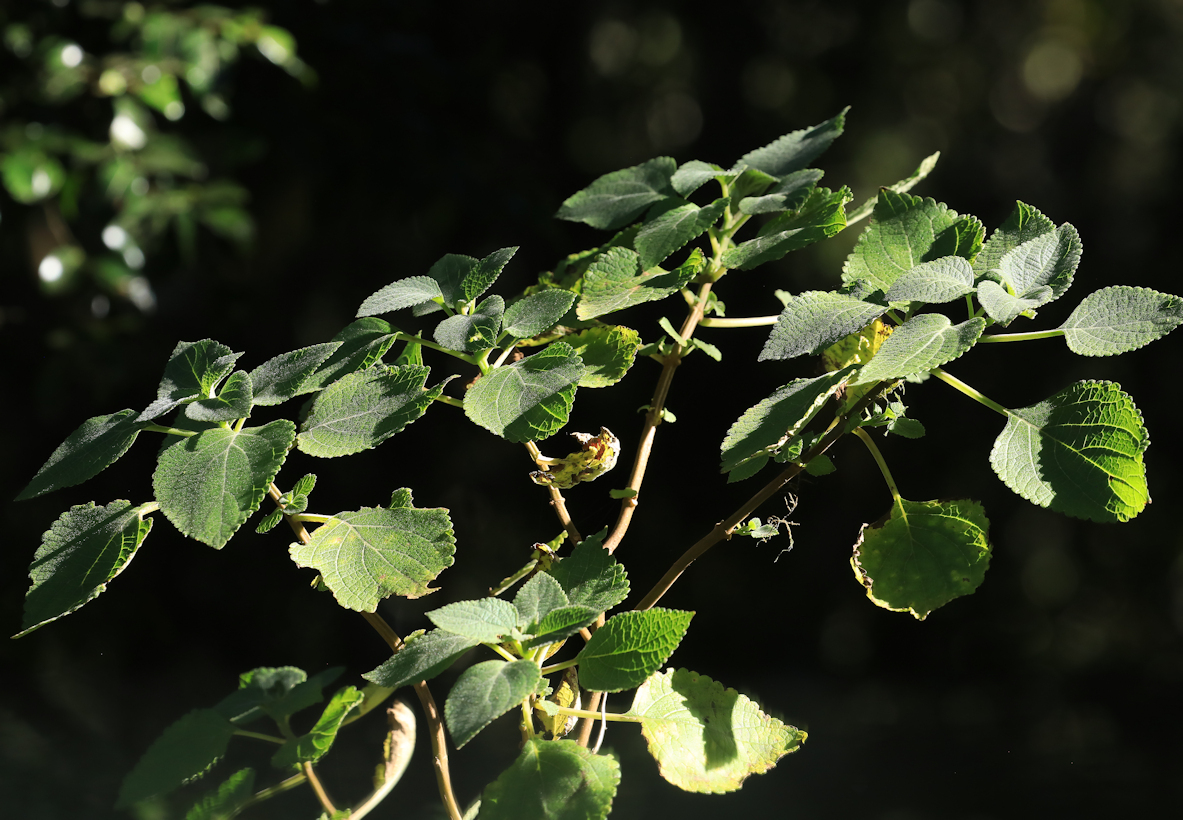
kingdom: Plantae
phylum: Tracheophyta
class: Magnoliopsida
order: Lamiales
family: Lamiaceae
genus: Tetradenia
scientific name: Tetradenia riparia
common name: Gingerbush
